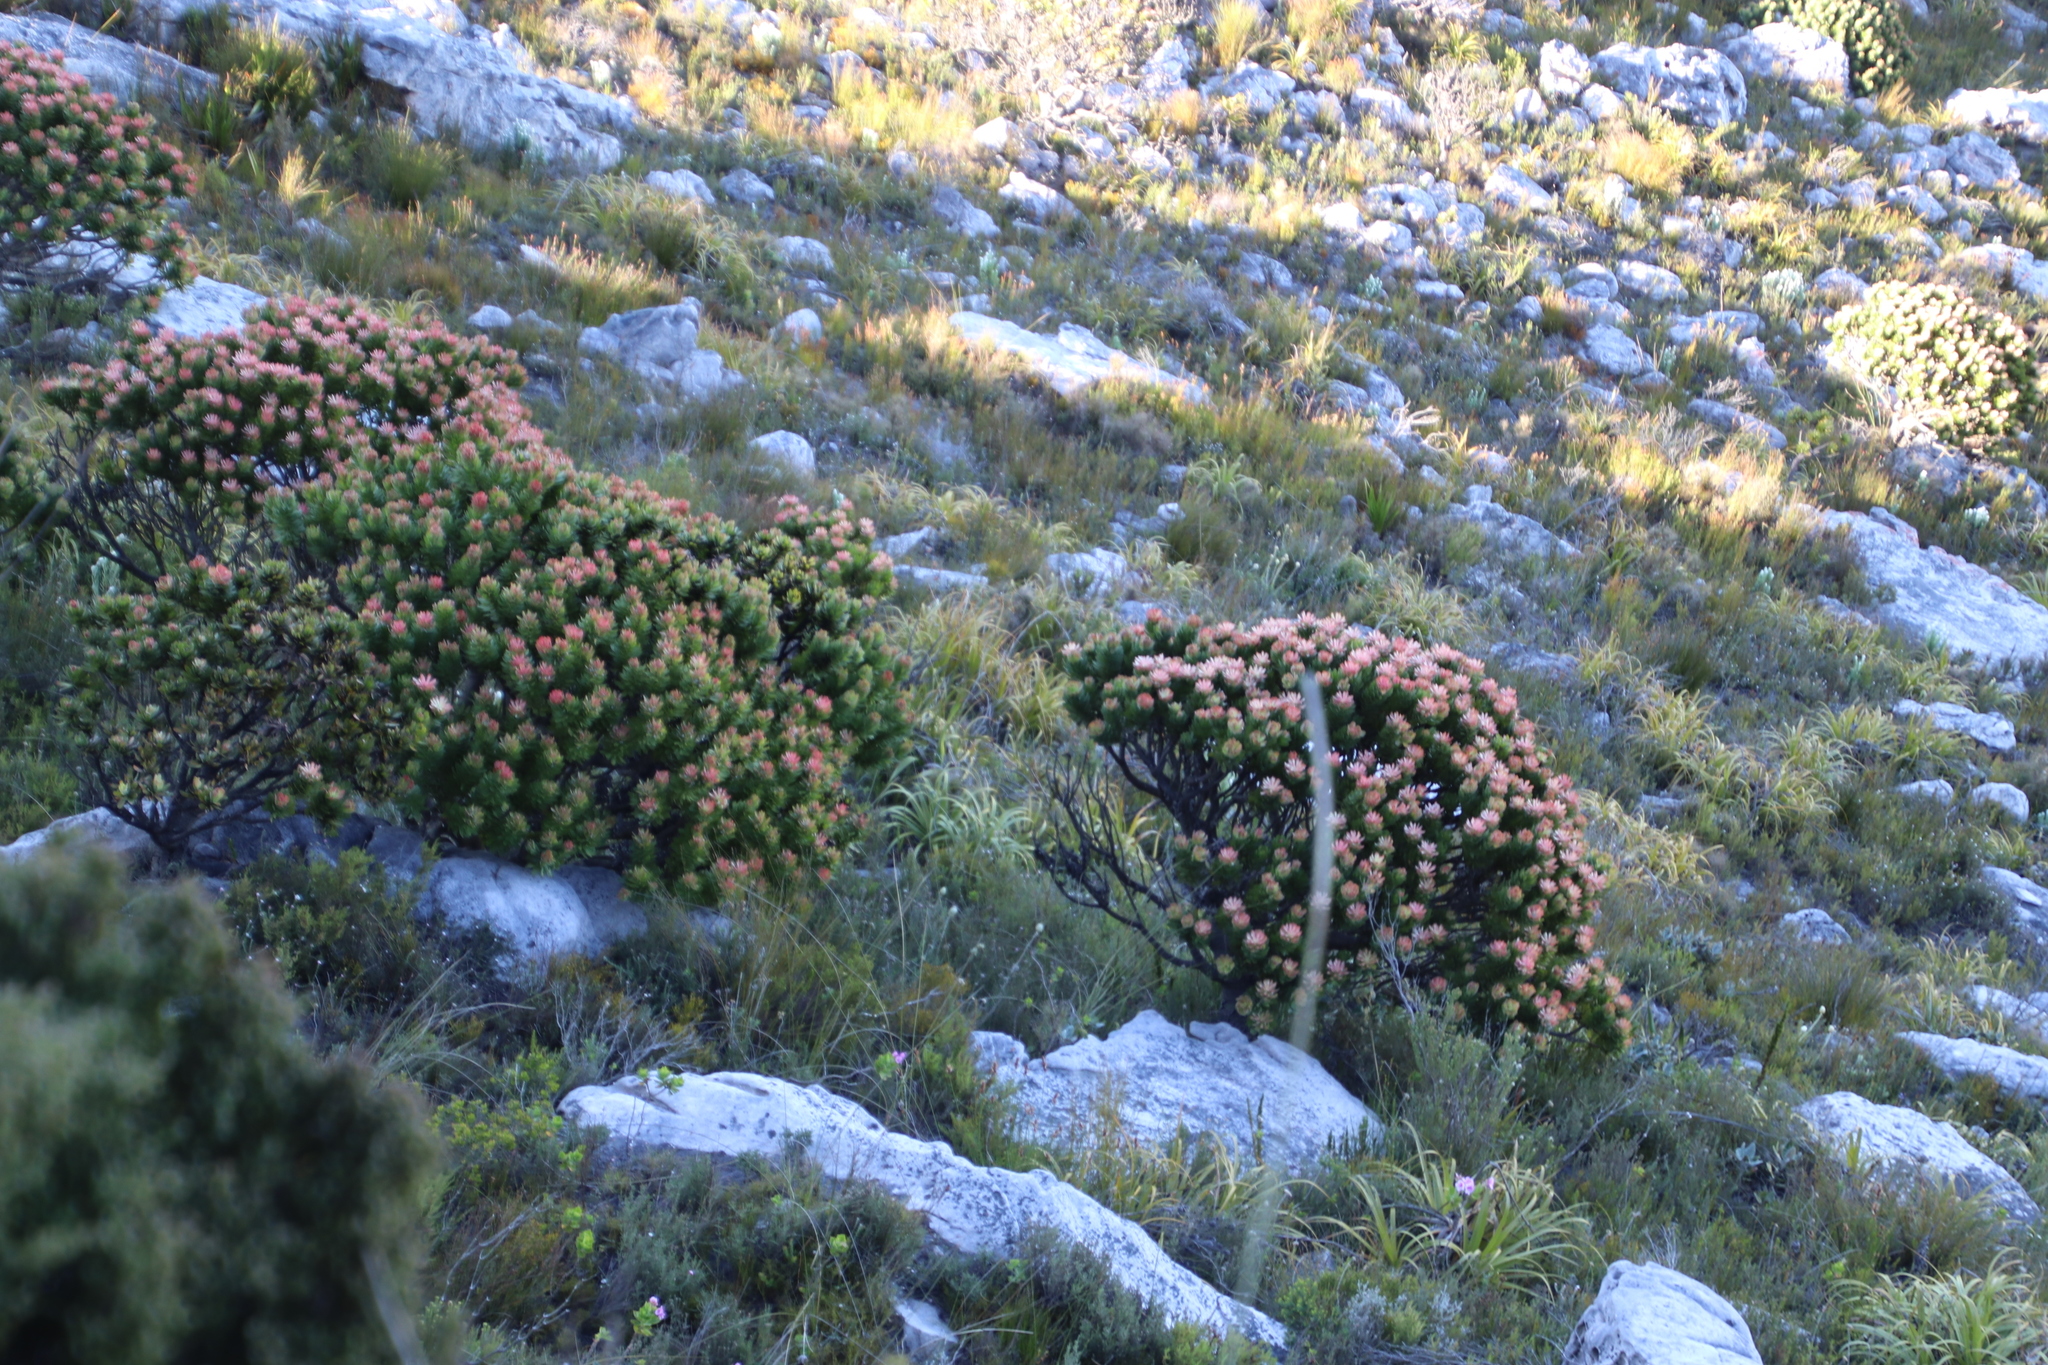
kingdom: Plantae
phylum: Tracheophyta
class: Magnoliopsida
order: Proteales
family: Proteaceae
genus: Mimetes
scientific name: Mimetes fimbriifolius
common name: Fringed bottlebrush
